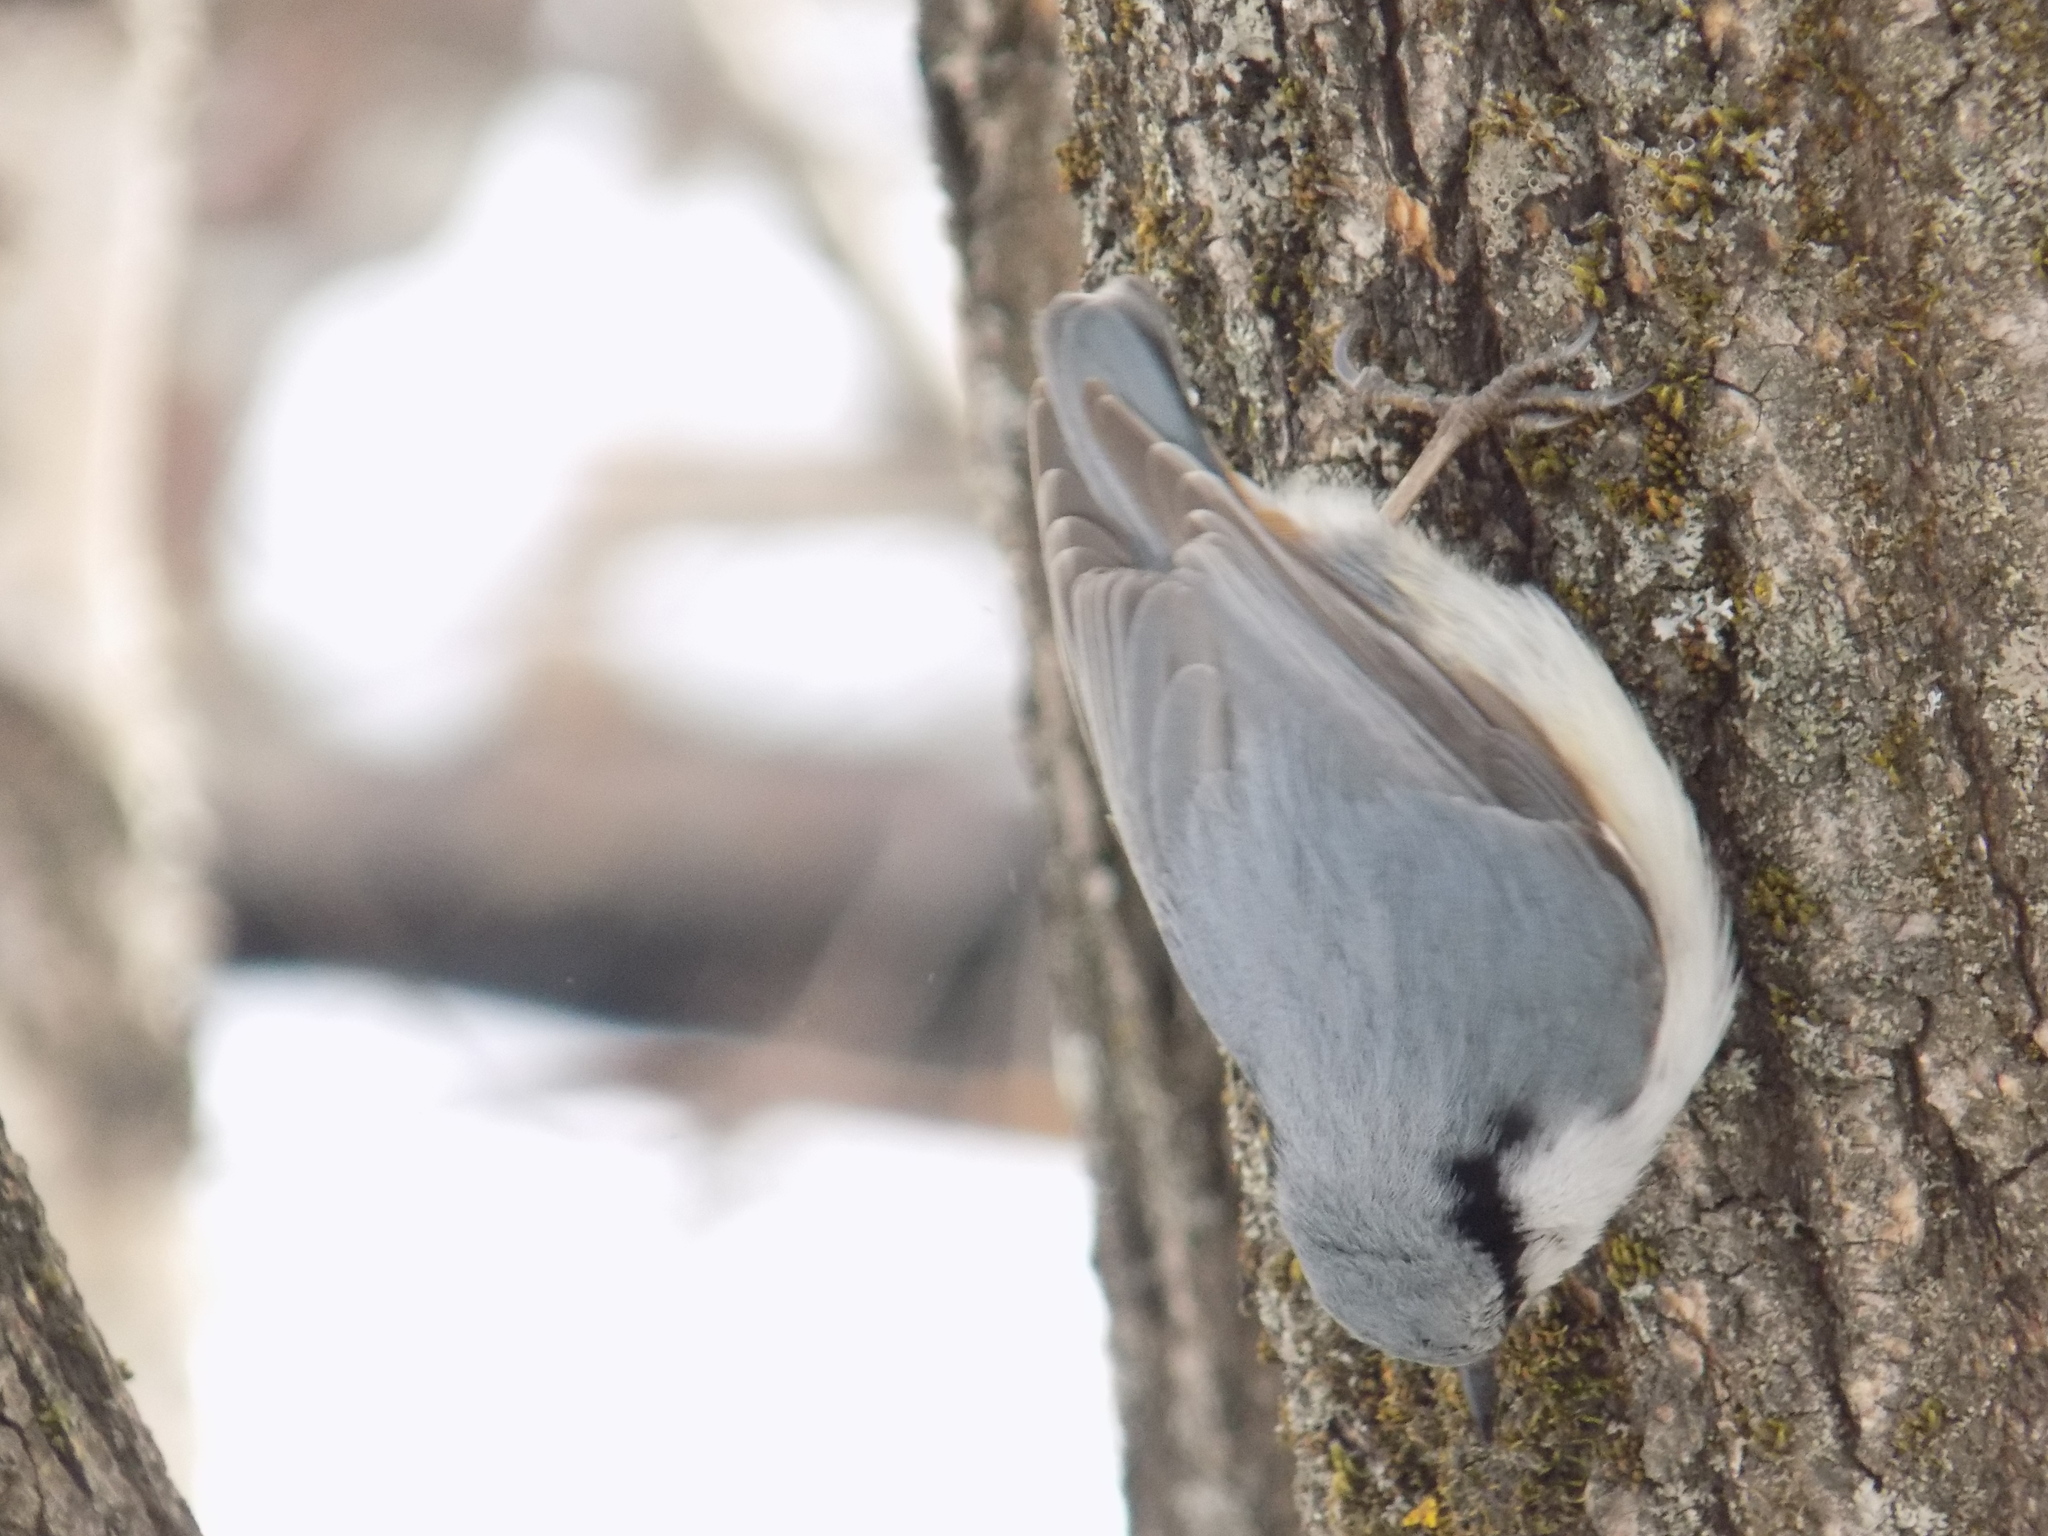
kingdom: Animalia
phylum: Chordata
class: Aves
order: Passeriformes
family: Sittidae
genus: Sitta
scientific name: Sitta europaea
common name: Eurasian nuthatch
